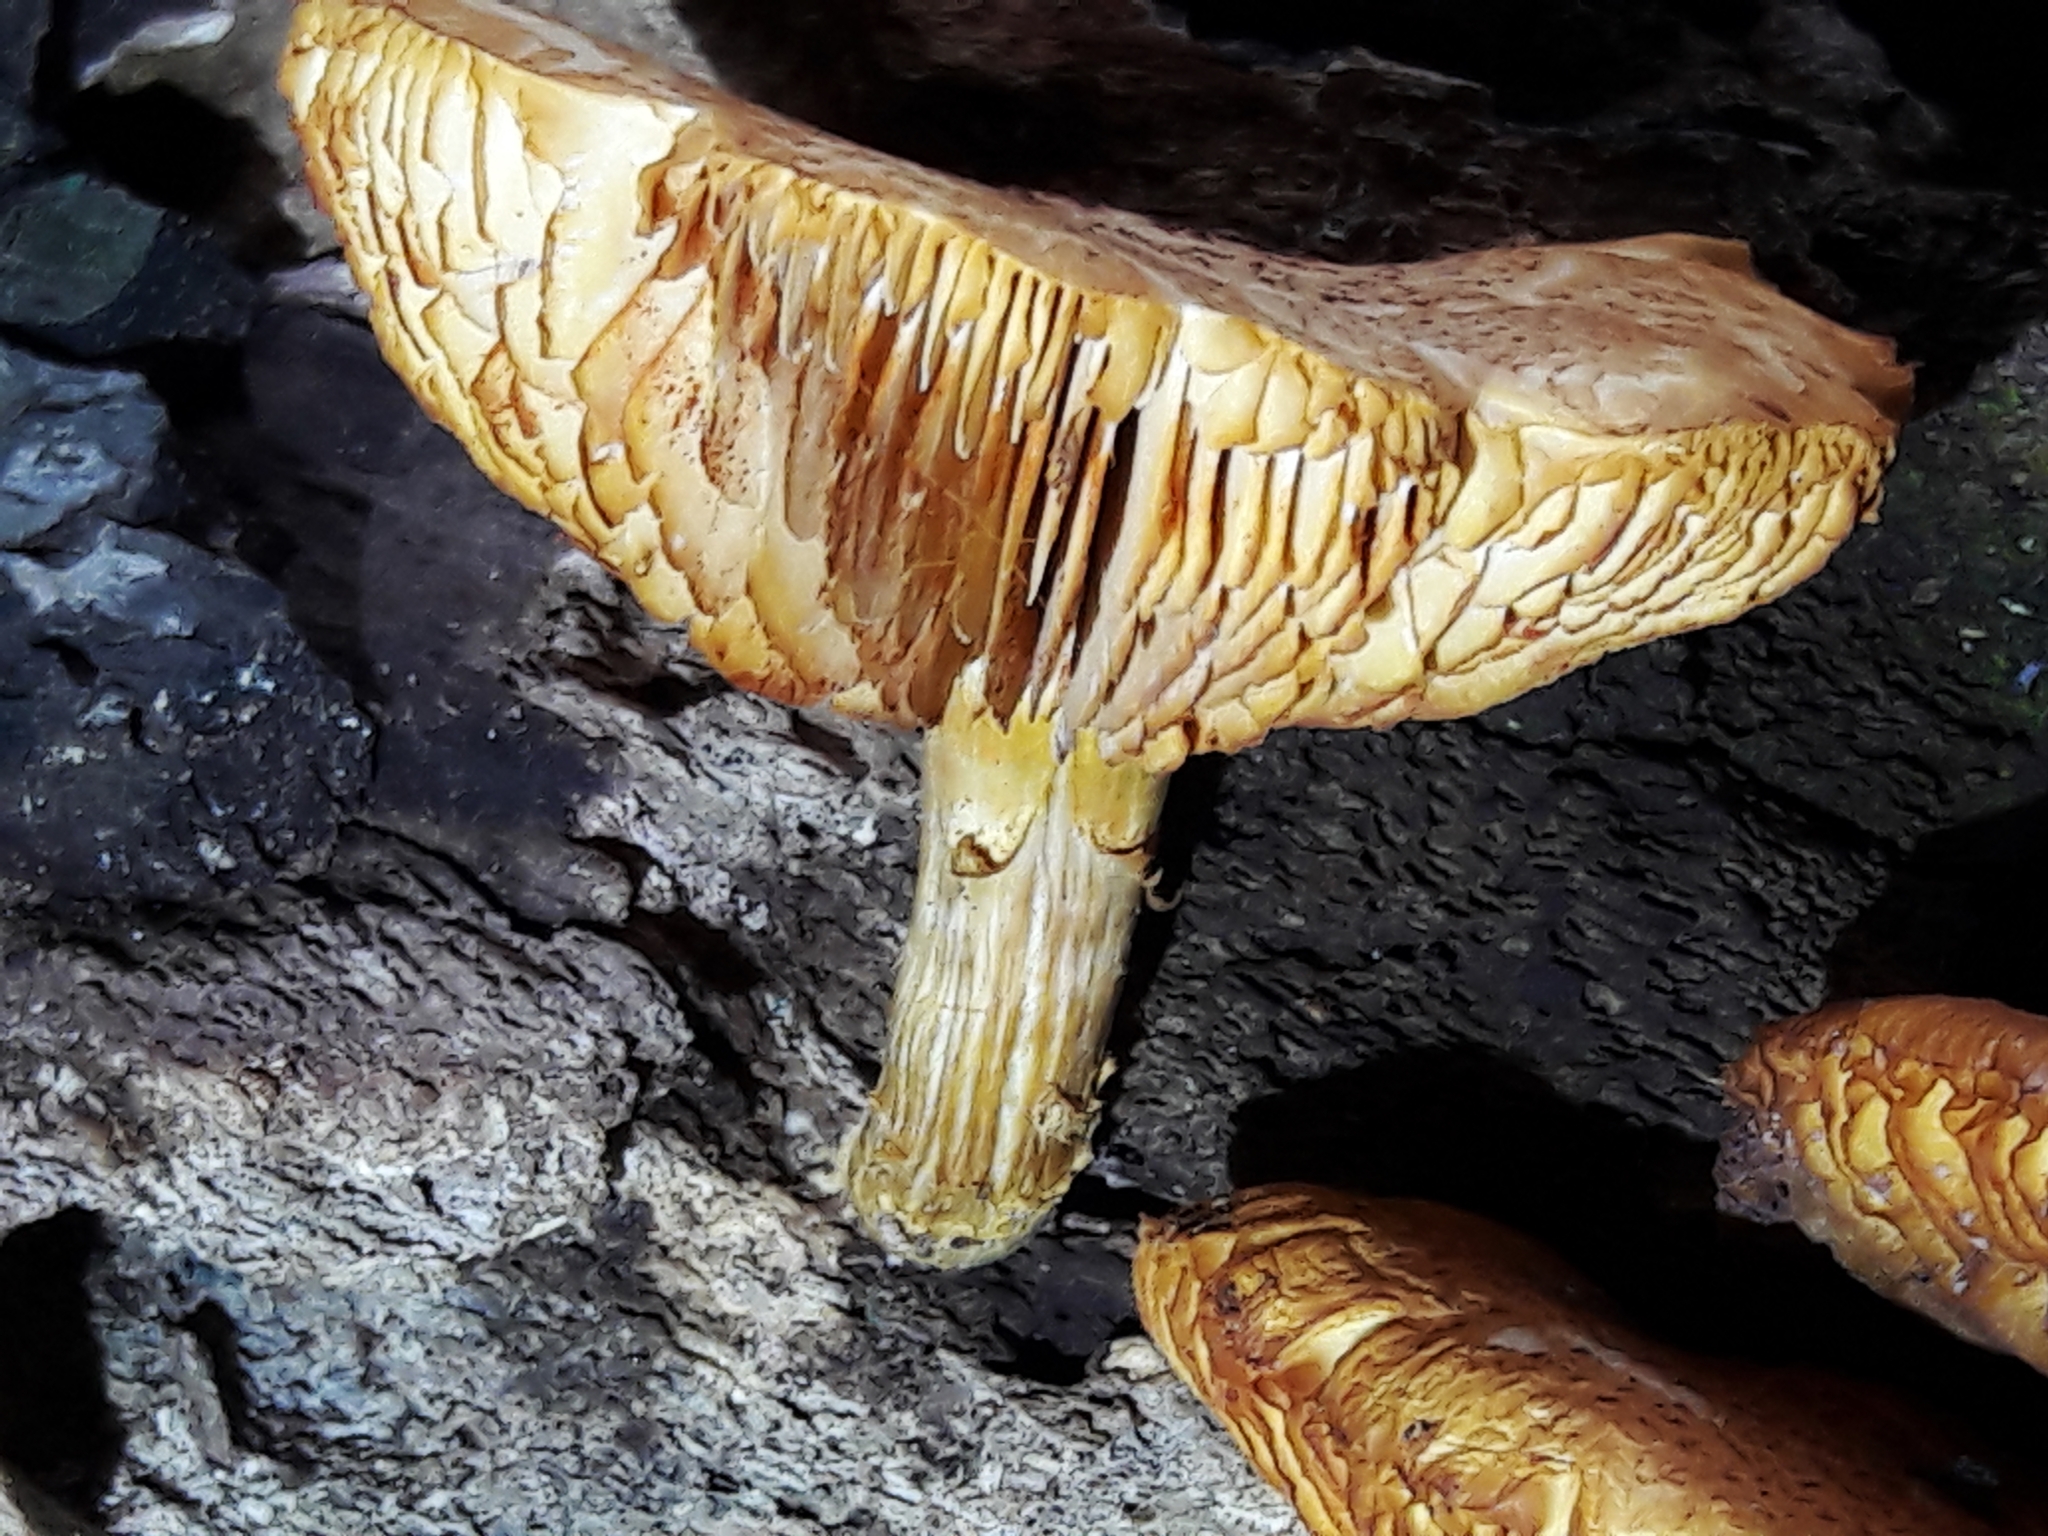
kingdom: Fungi
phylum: Basidiomycota
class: Agaricomycetes
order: Agaricales
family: Hymenogastraceae
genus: Gymnopilus
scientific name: Gymnopilus luteofolius
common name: Yellow-gilled gymnopilus
